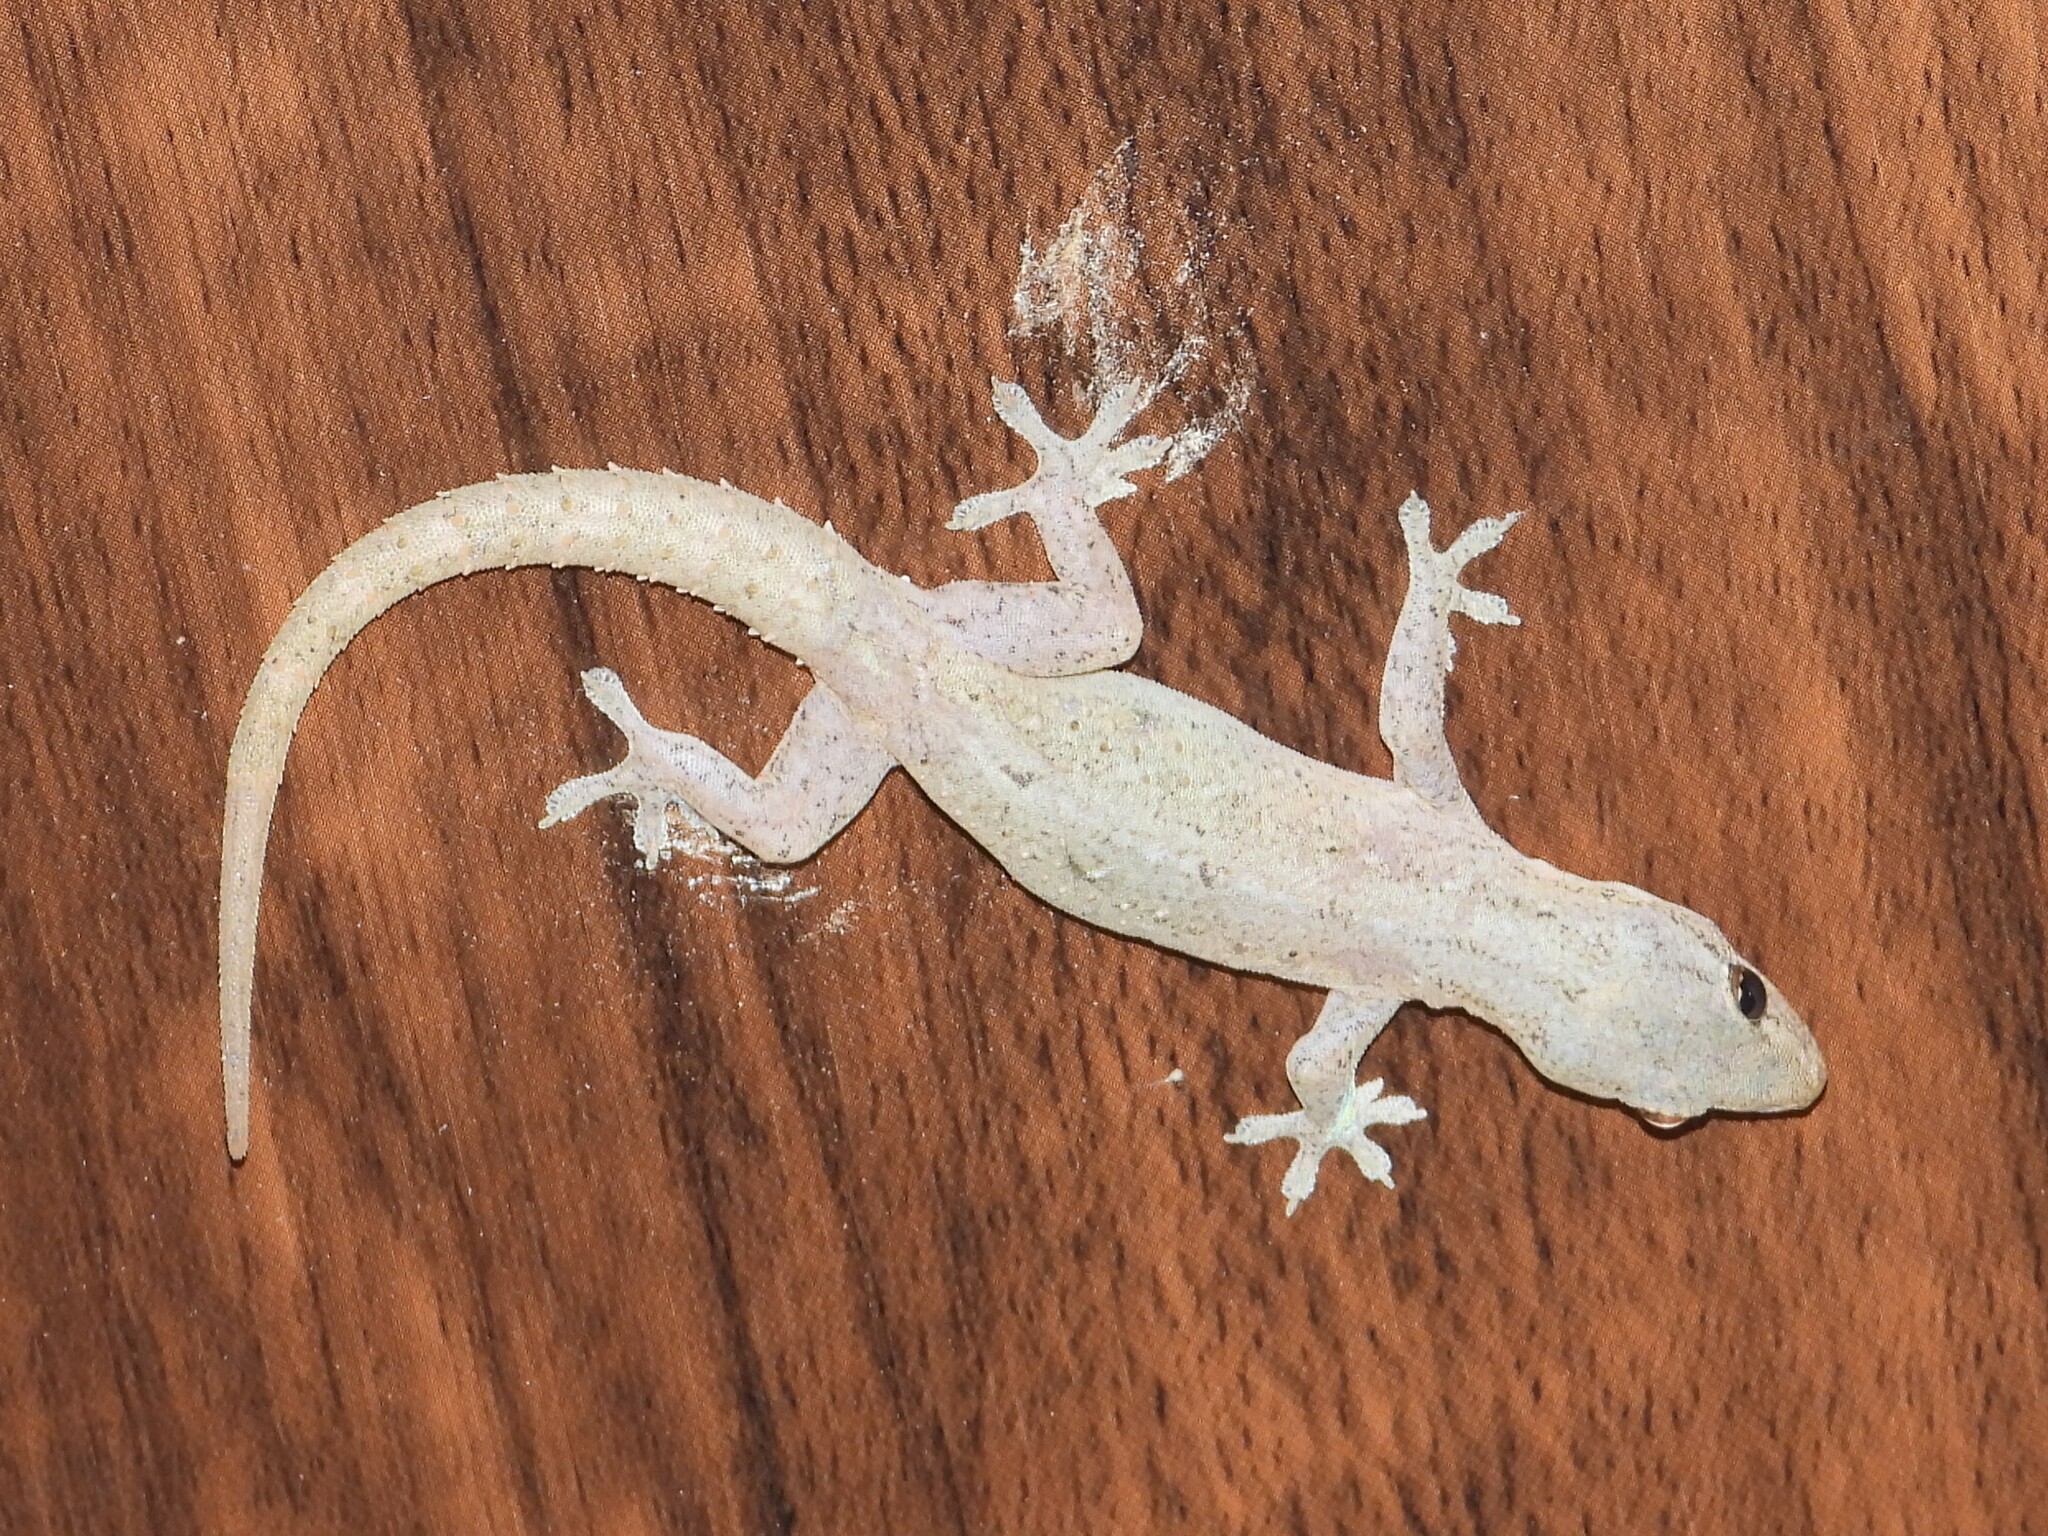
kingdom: Animalia
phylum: Chordata
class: Squamata
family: Gekkonidae
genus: Hemidactylus
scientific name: Hemidactylus frenatus
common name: Common house gecko
